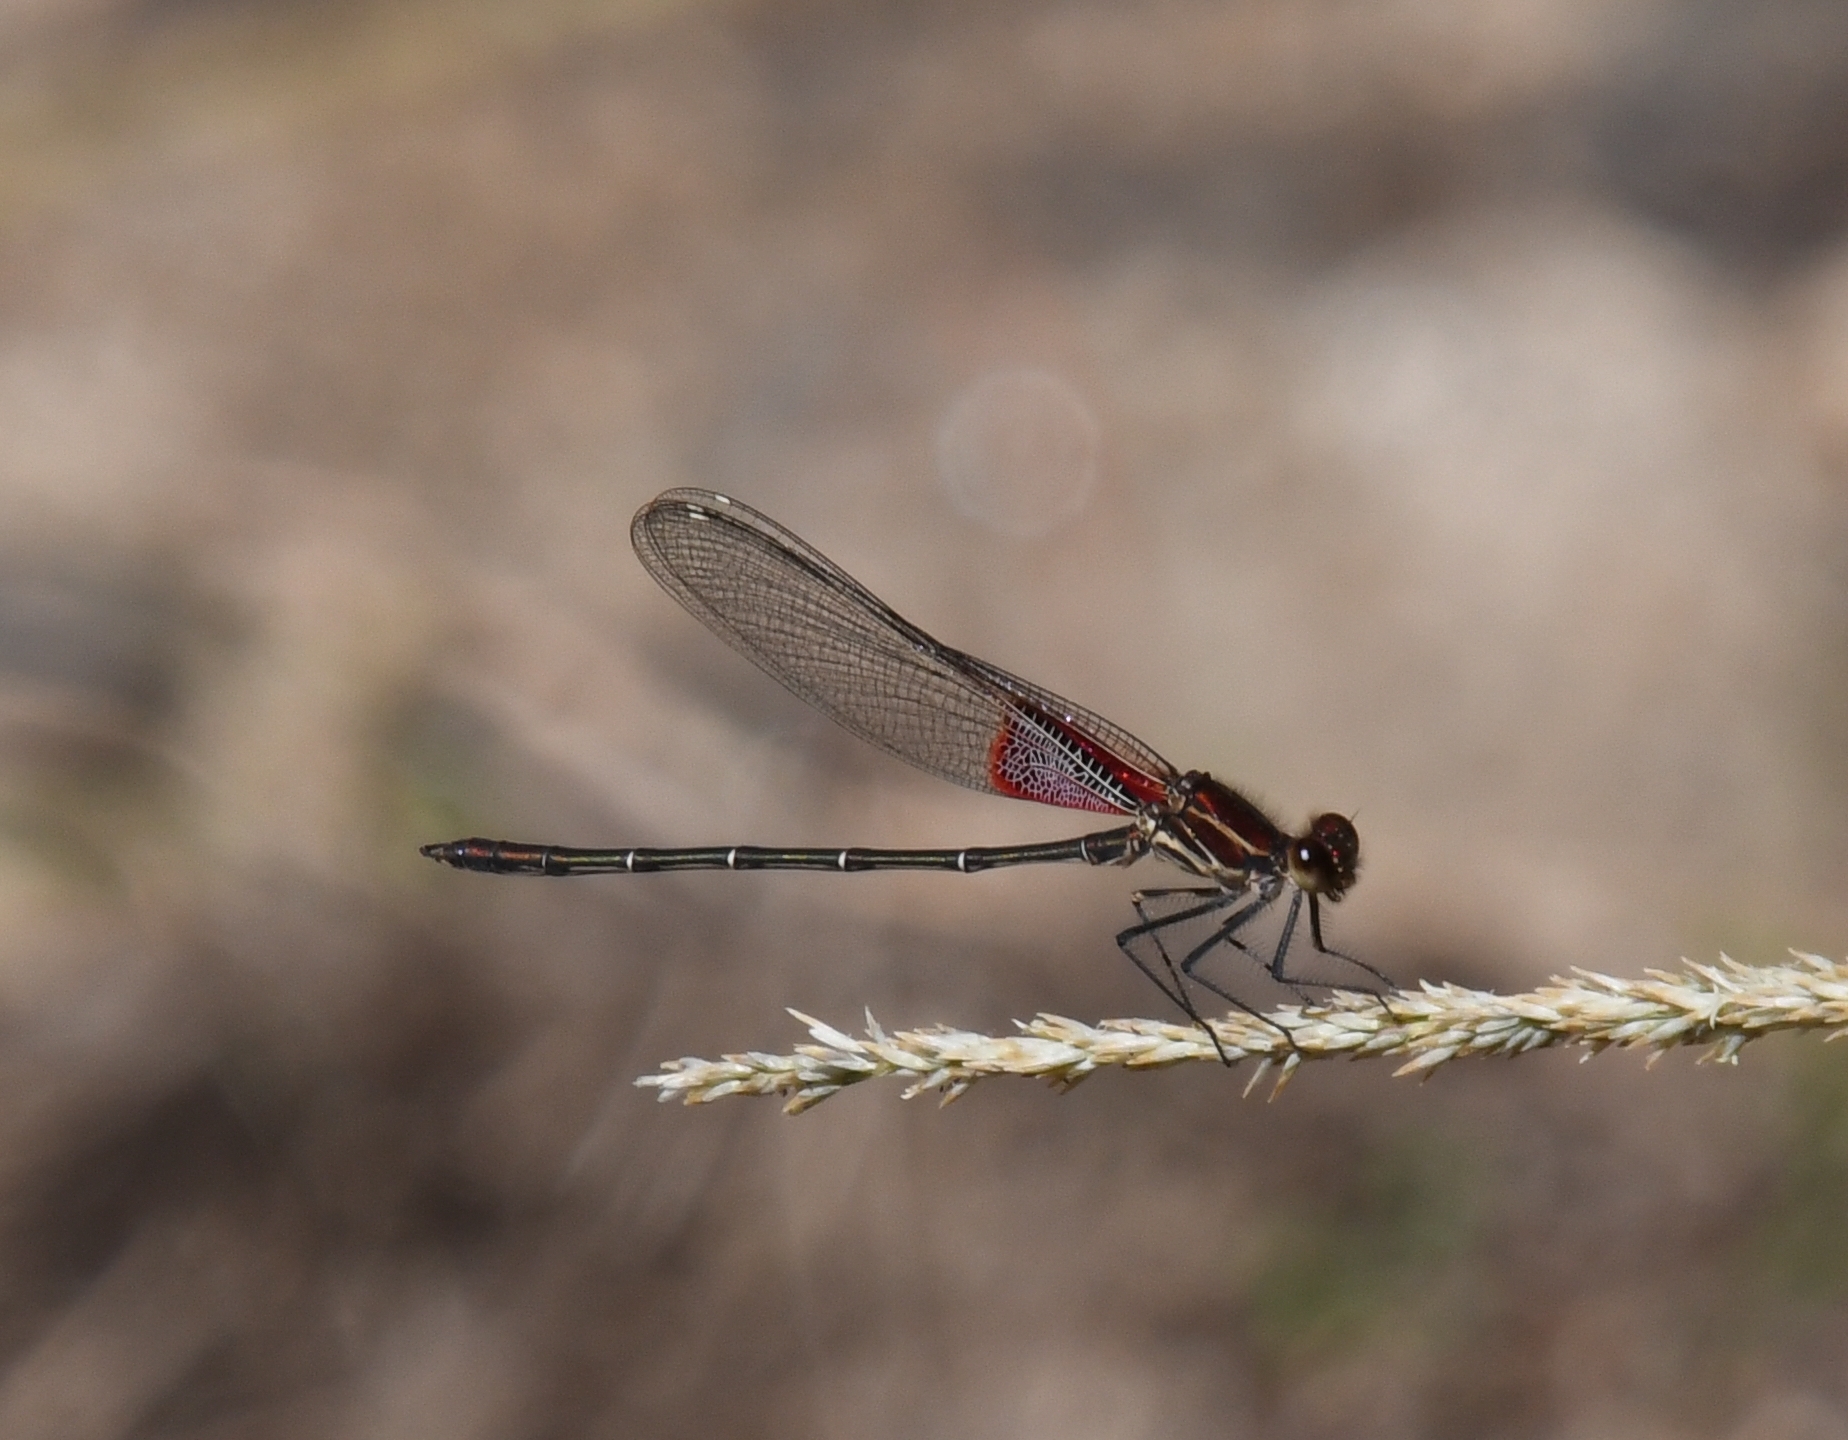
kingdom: Animalia
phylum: Arthropoda
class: Insecta
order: Odonata
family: Calopterygidae
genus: Hetaerina
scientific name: Hetaerina americana
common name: American rubyspot
